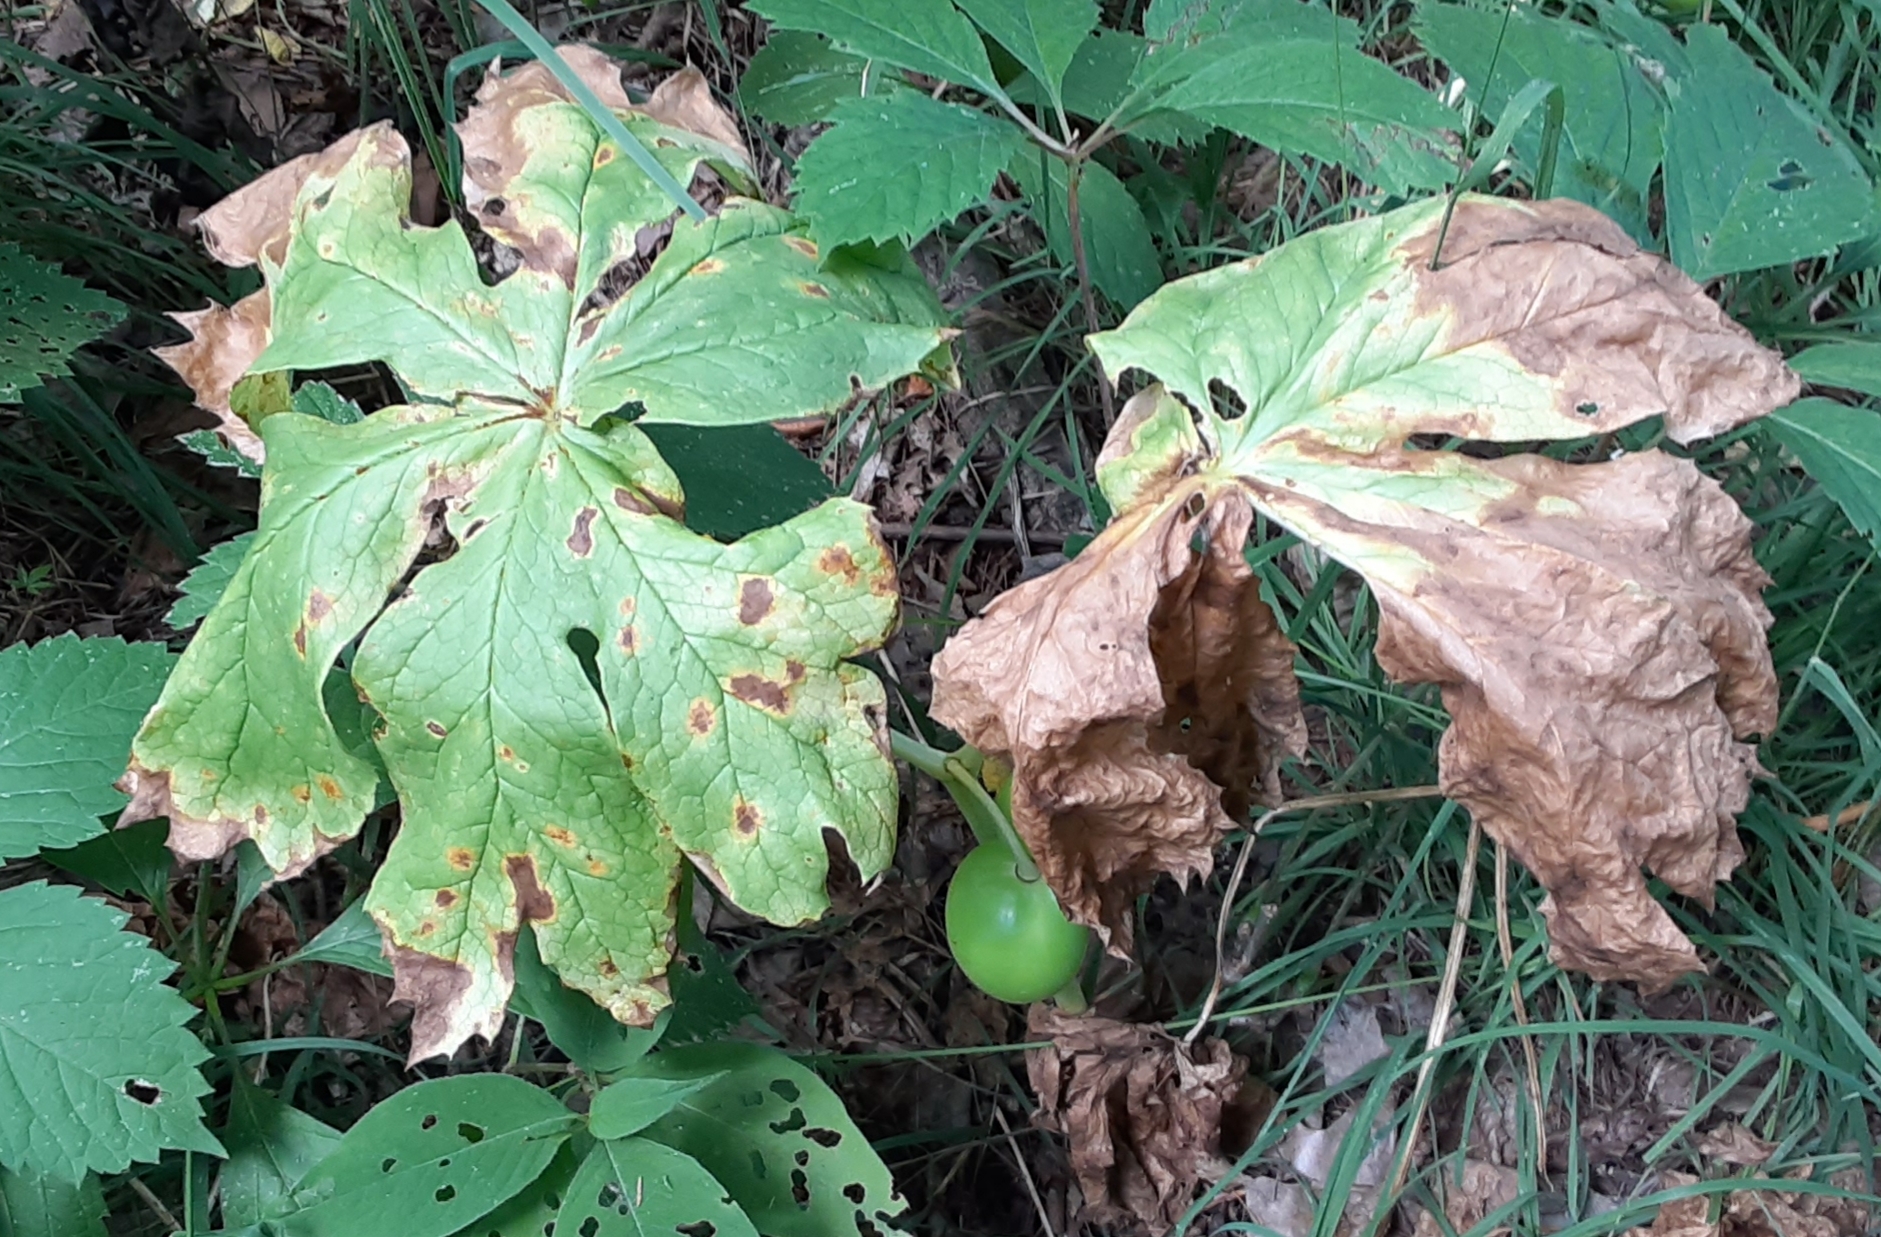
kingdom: Plantae
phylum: Tracheophyta
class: Magnoliopsida
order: Ranunculales
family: Berberidaceae
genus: Podophyllum
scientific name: Podophyllum peltatum
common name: Wild mandrake
